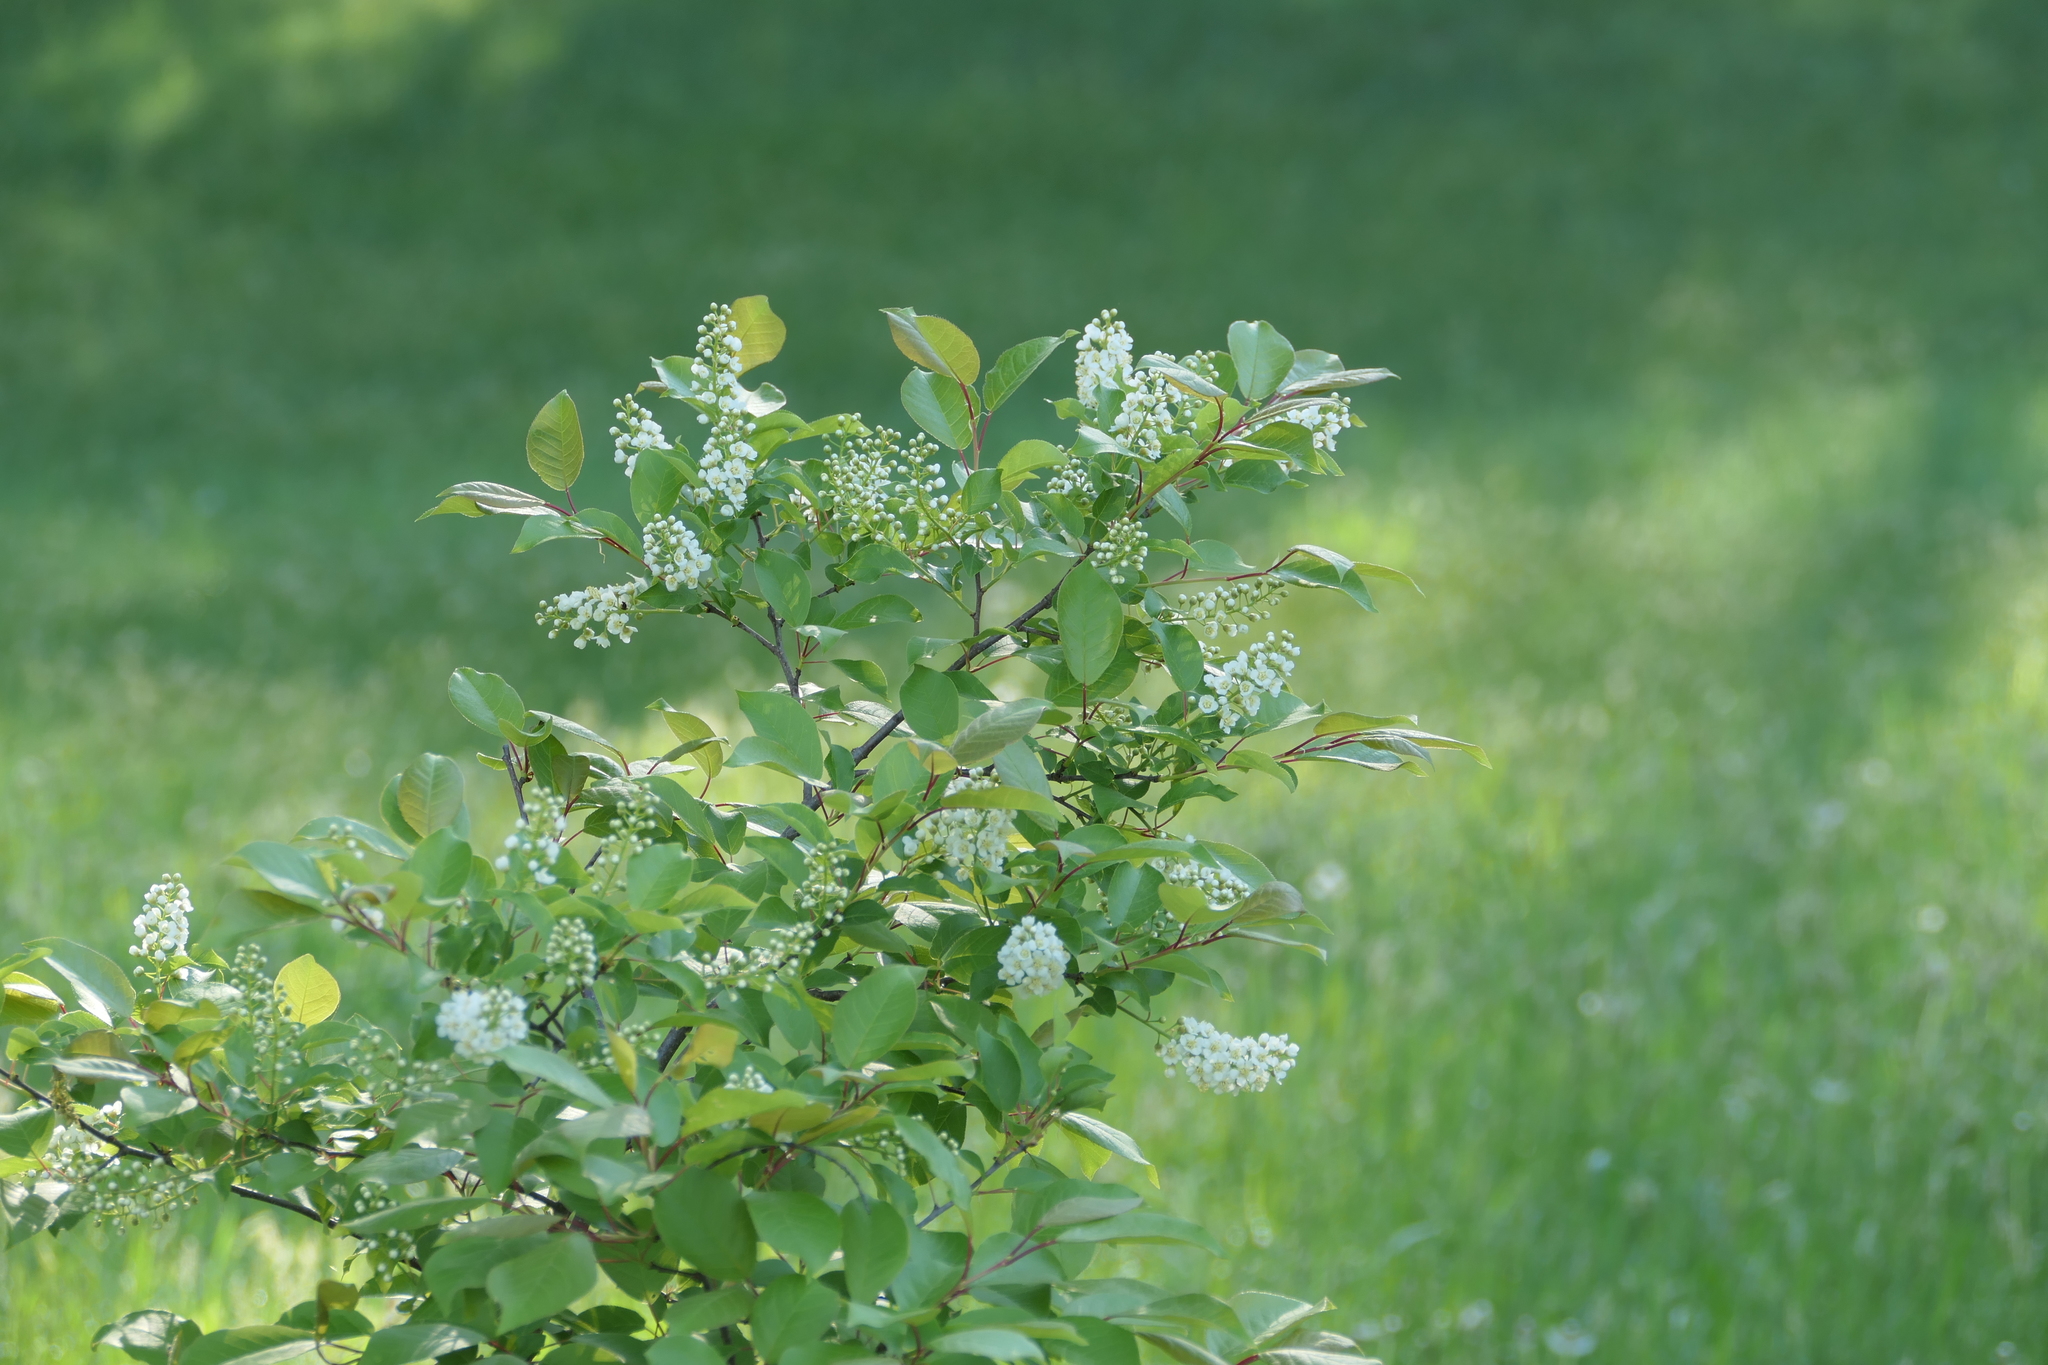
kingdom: Plantae
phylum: Tracheophyta
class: Magnoliopsida
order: Rosales
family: Rosaceae
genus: Prunus
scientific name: Prunus virginiana
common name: Chokecherry
